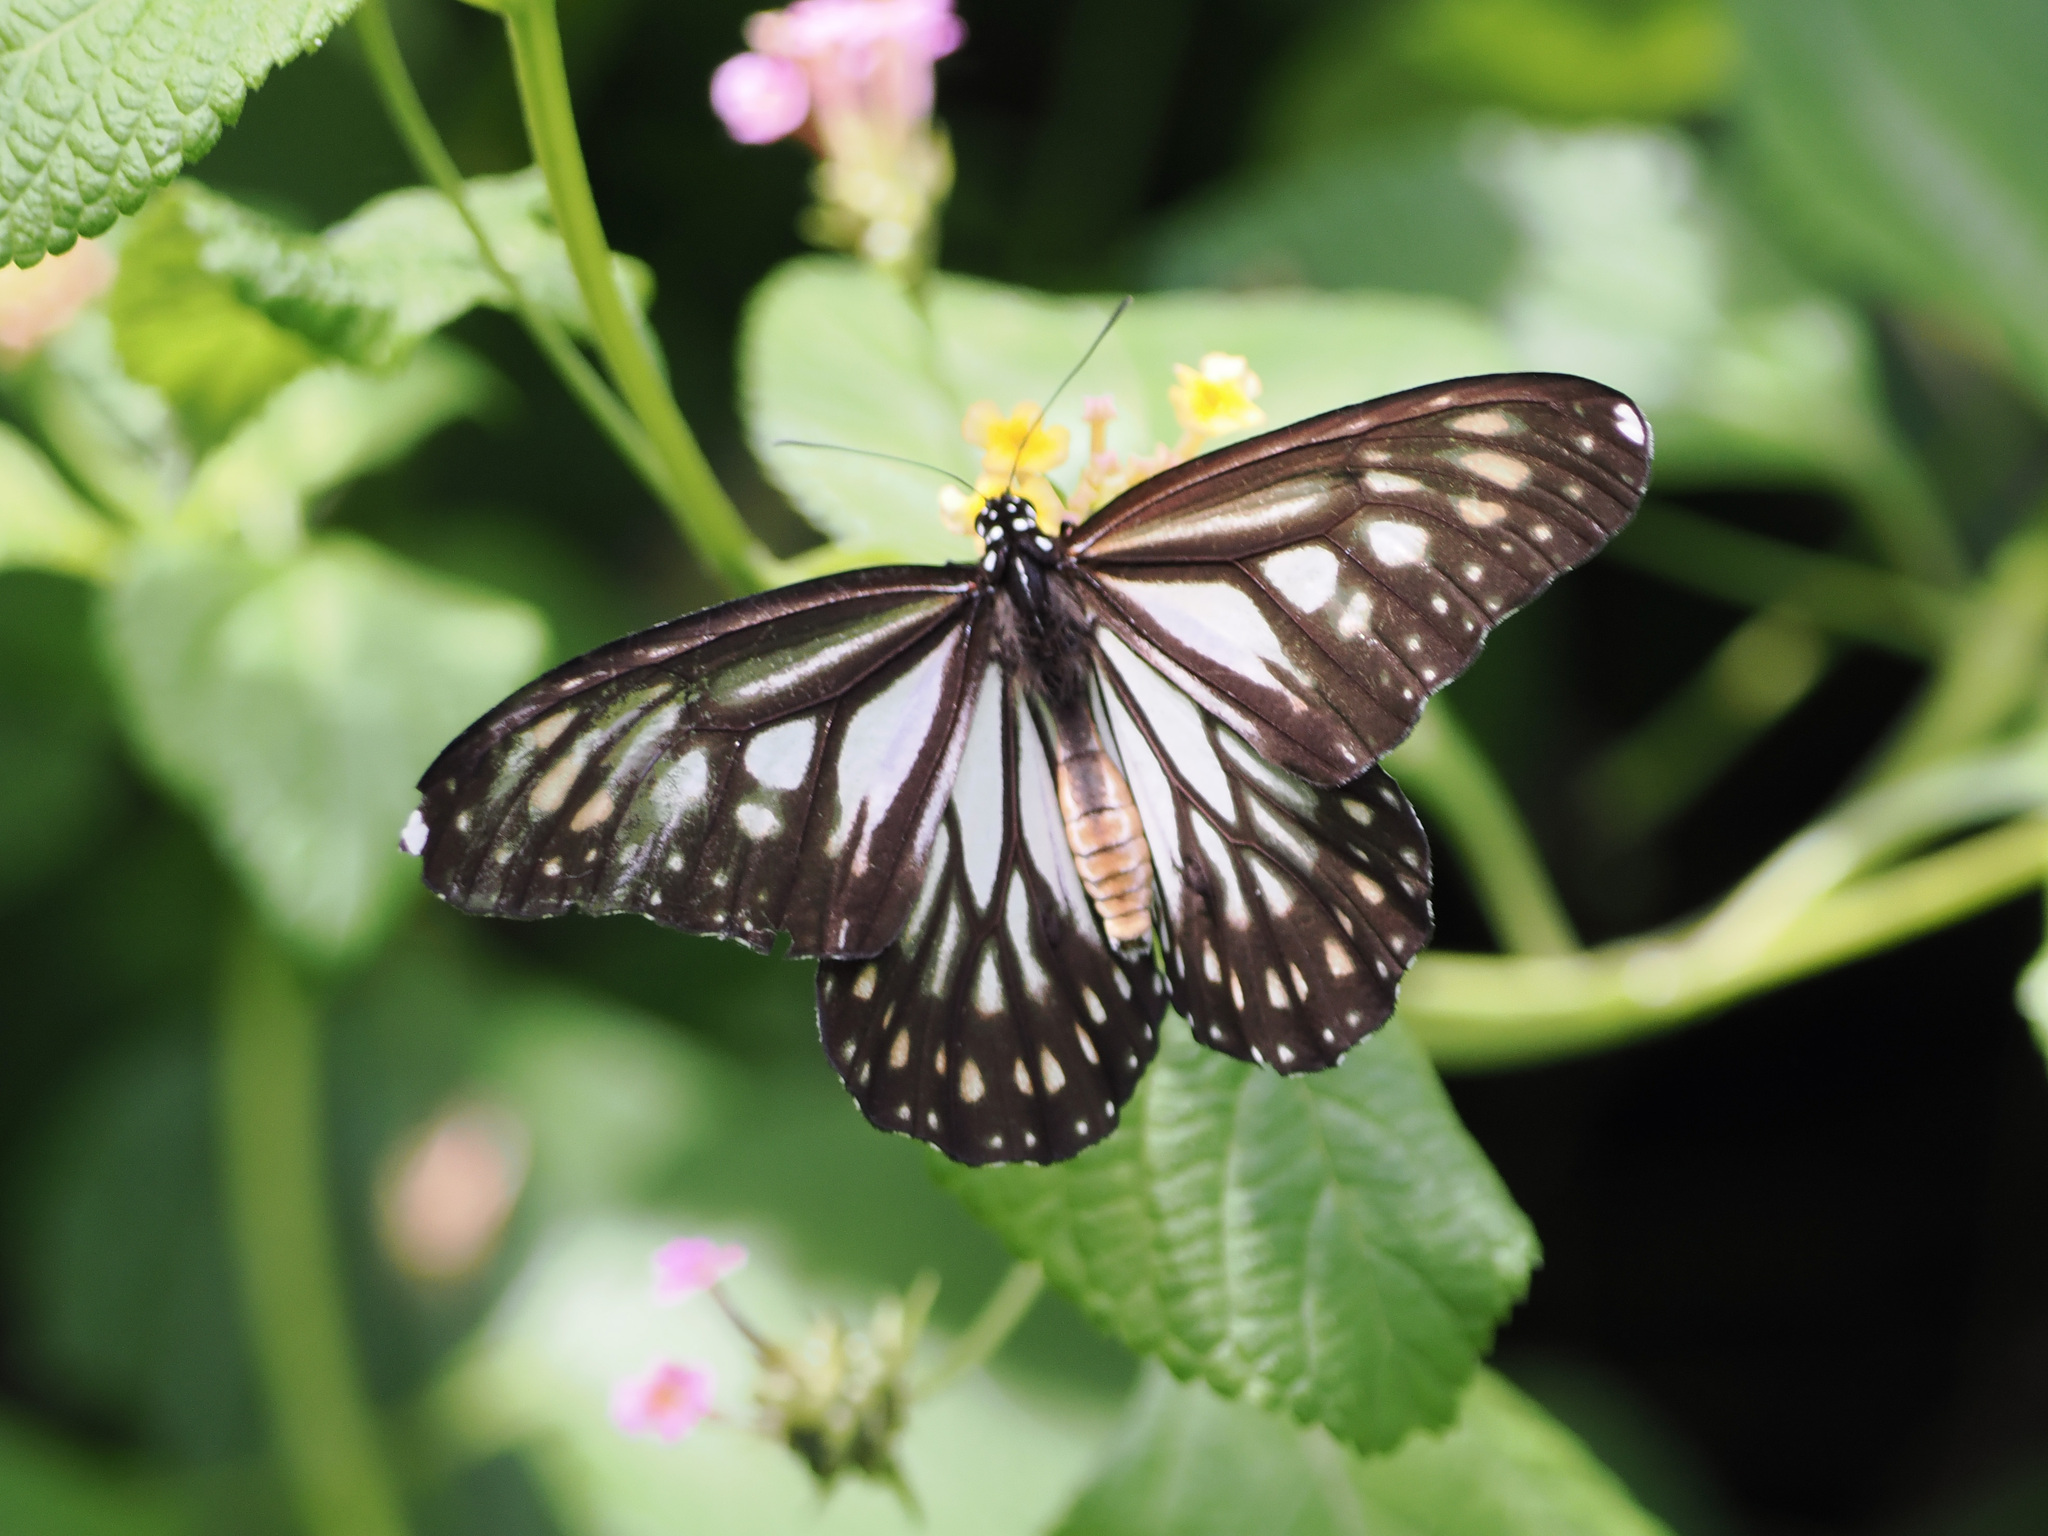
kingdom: Animalia
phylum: Arthropoda
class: Insecta
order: Lepidoptera
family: Nymphalidae
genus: Danaus
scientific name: Danaus ismare
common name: Ismare tiger butterfly
